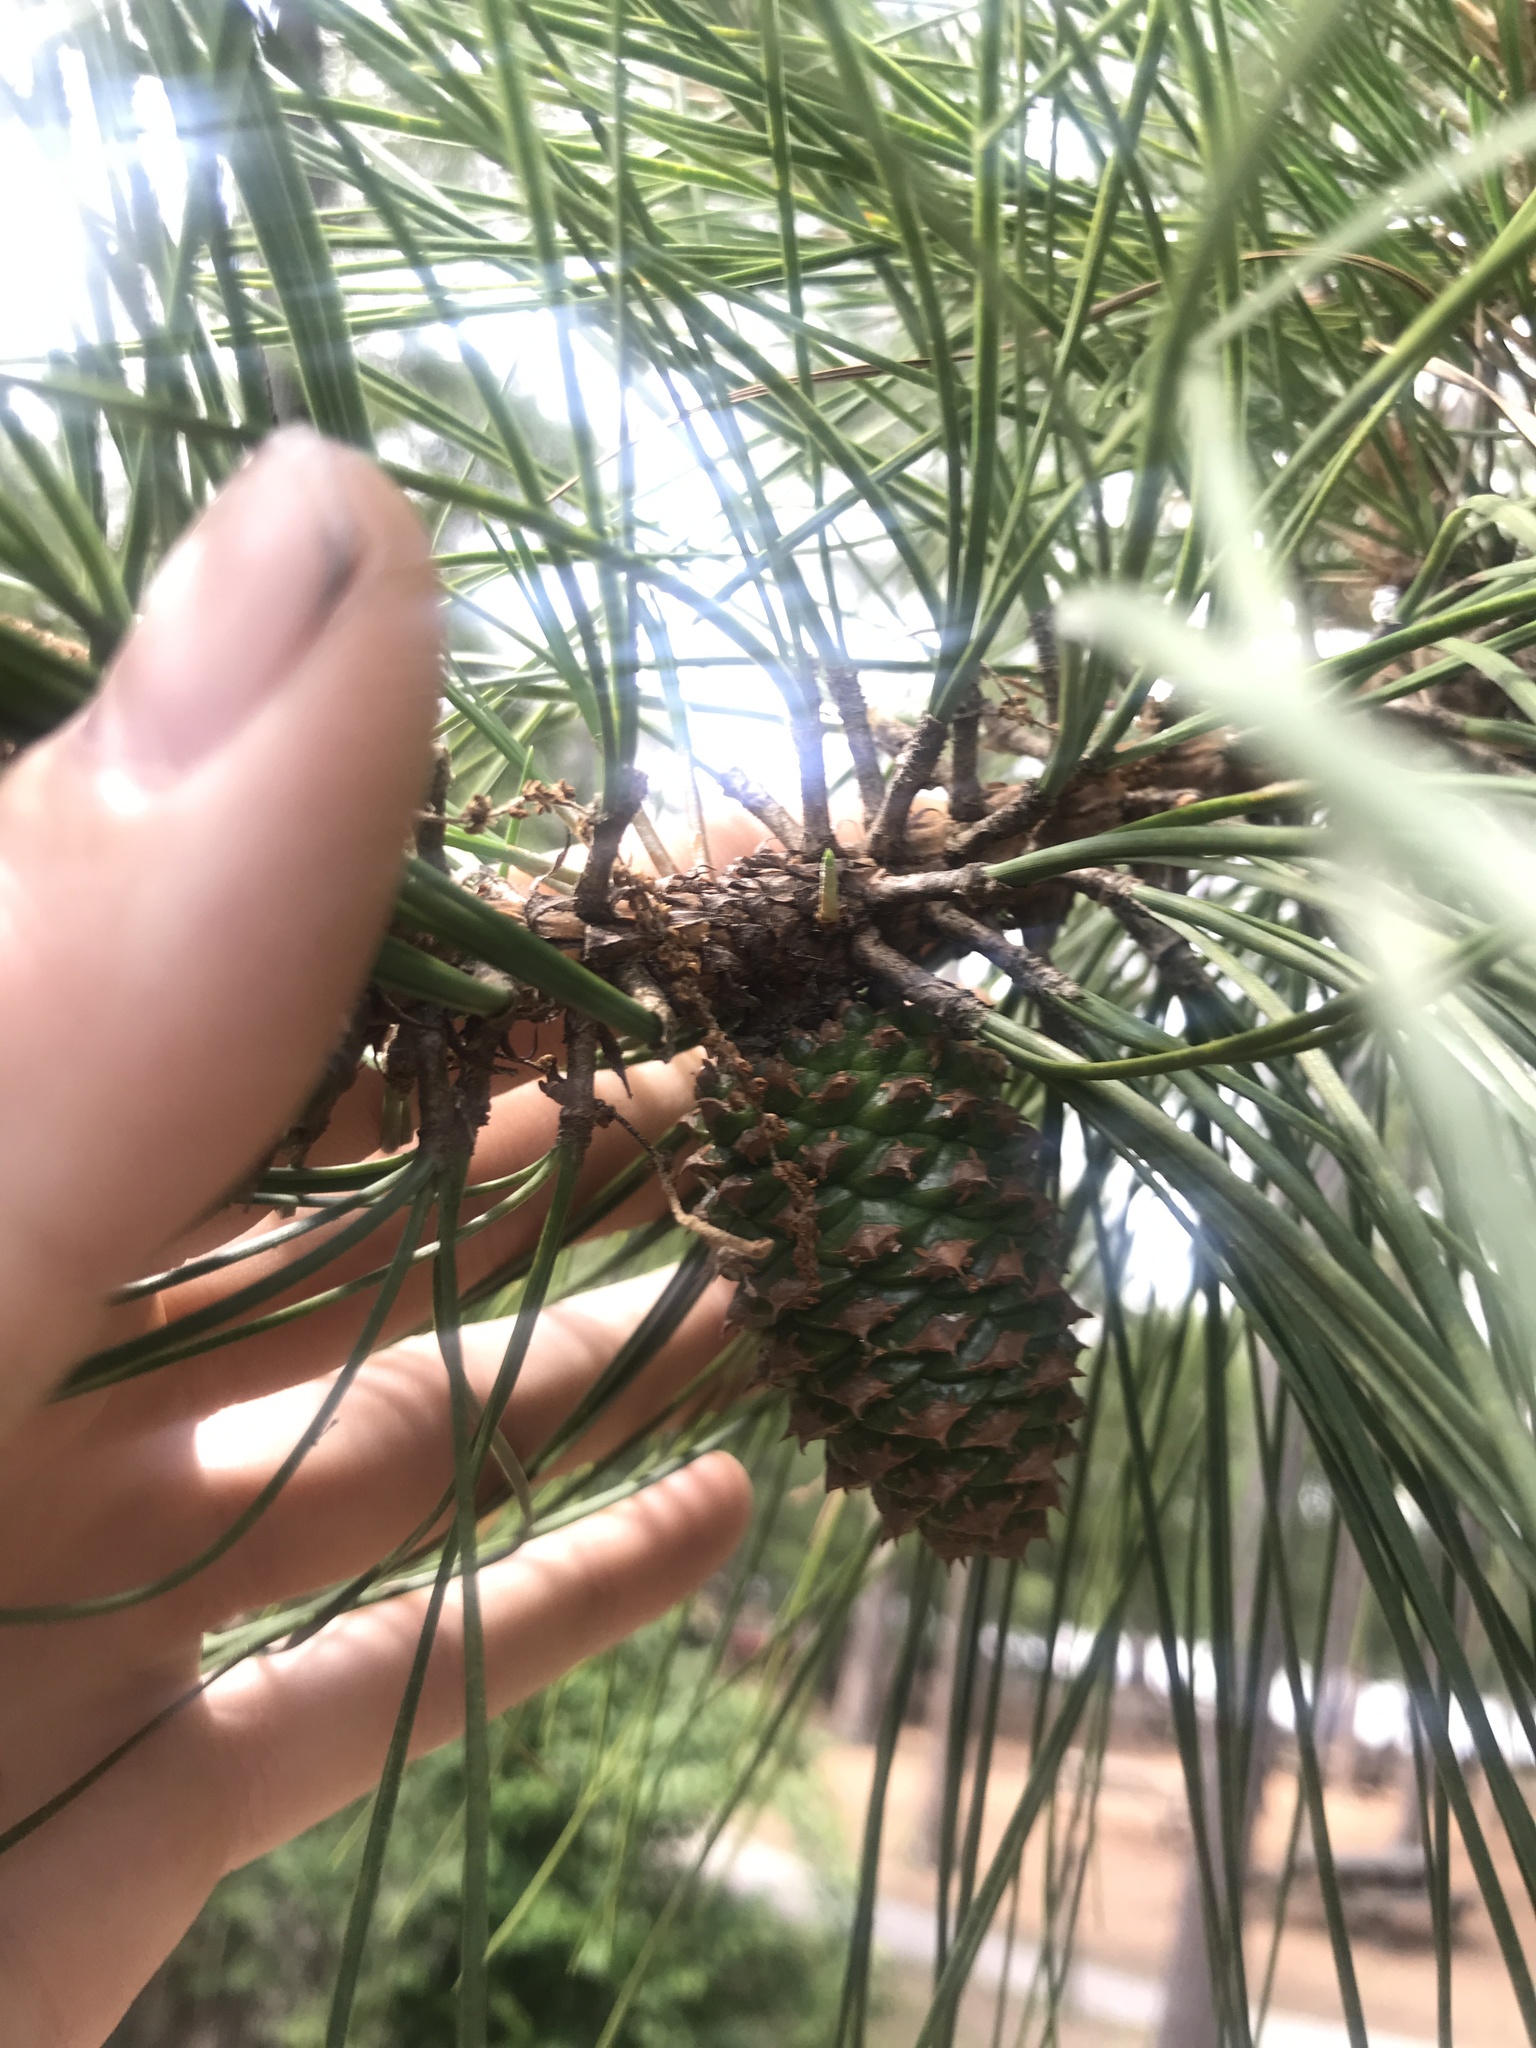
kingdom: Plantae
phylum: Tracheophyta
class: Pinopsida
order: Pinales
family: Pinaceae
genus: Pinus
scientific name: Pinus taeda
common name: Loblolly pine
